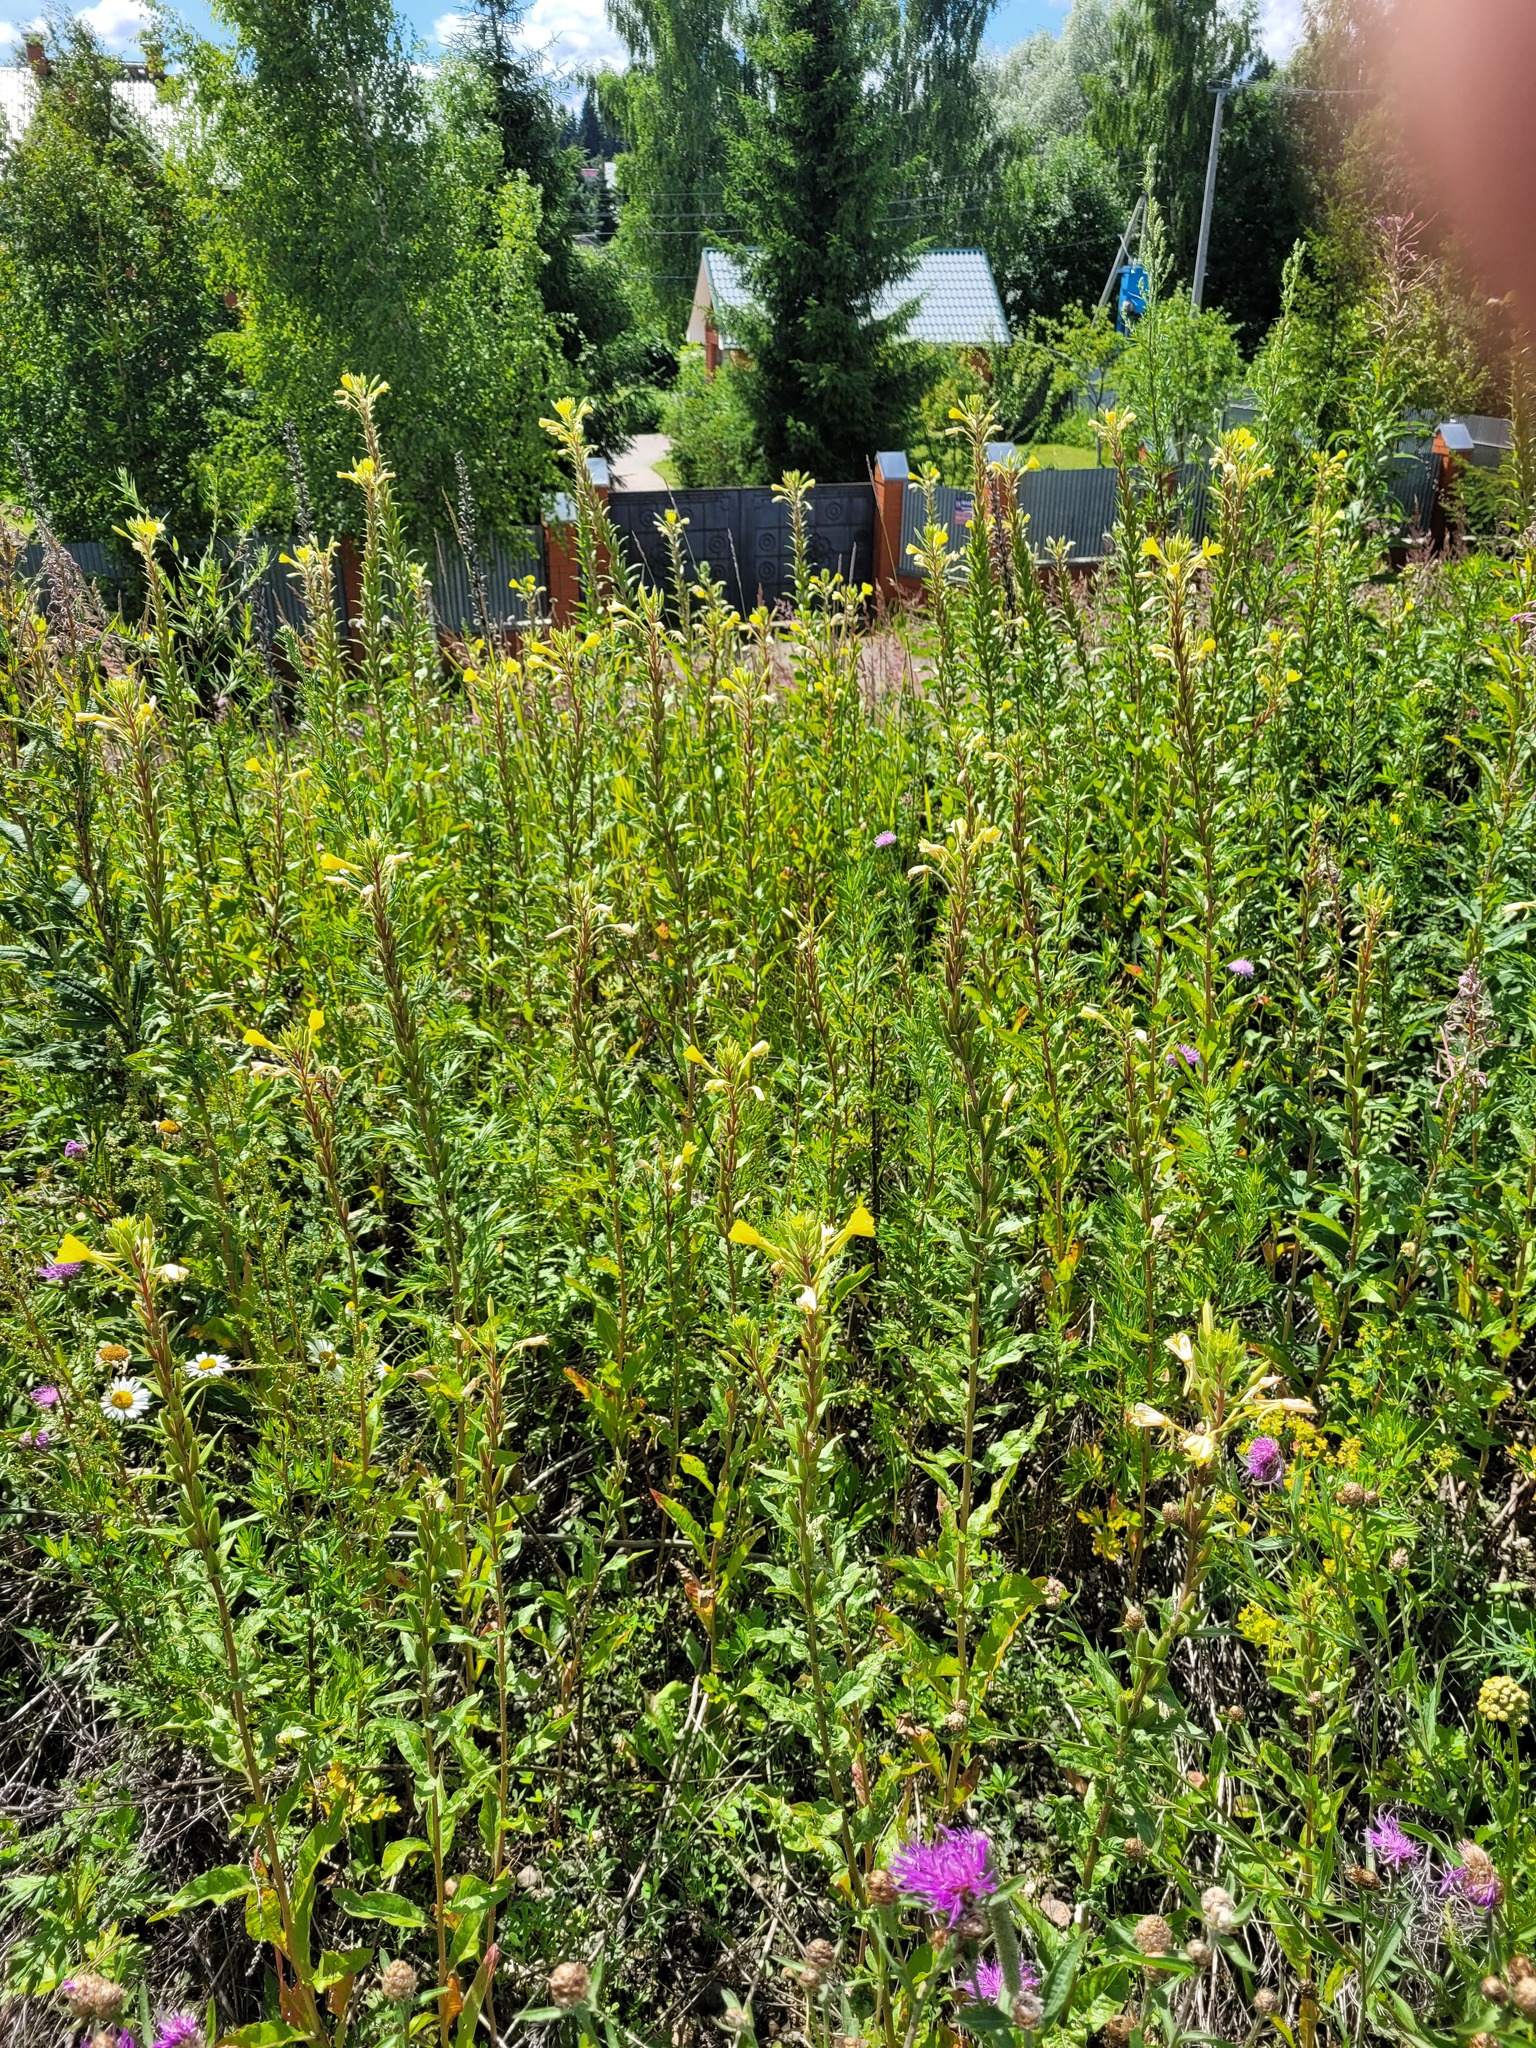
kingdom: Plantae
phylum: Tracheophyta
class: Magnoliopsida
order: Myrtales
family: Onagraceae
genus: Oenothera
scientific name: Oenothera rubricaulis
